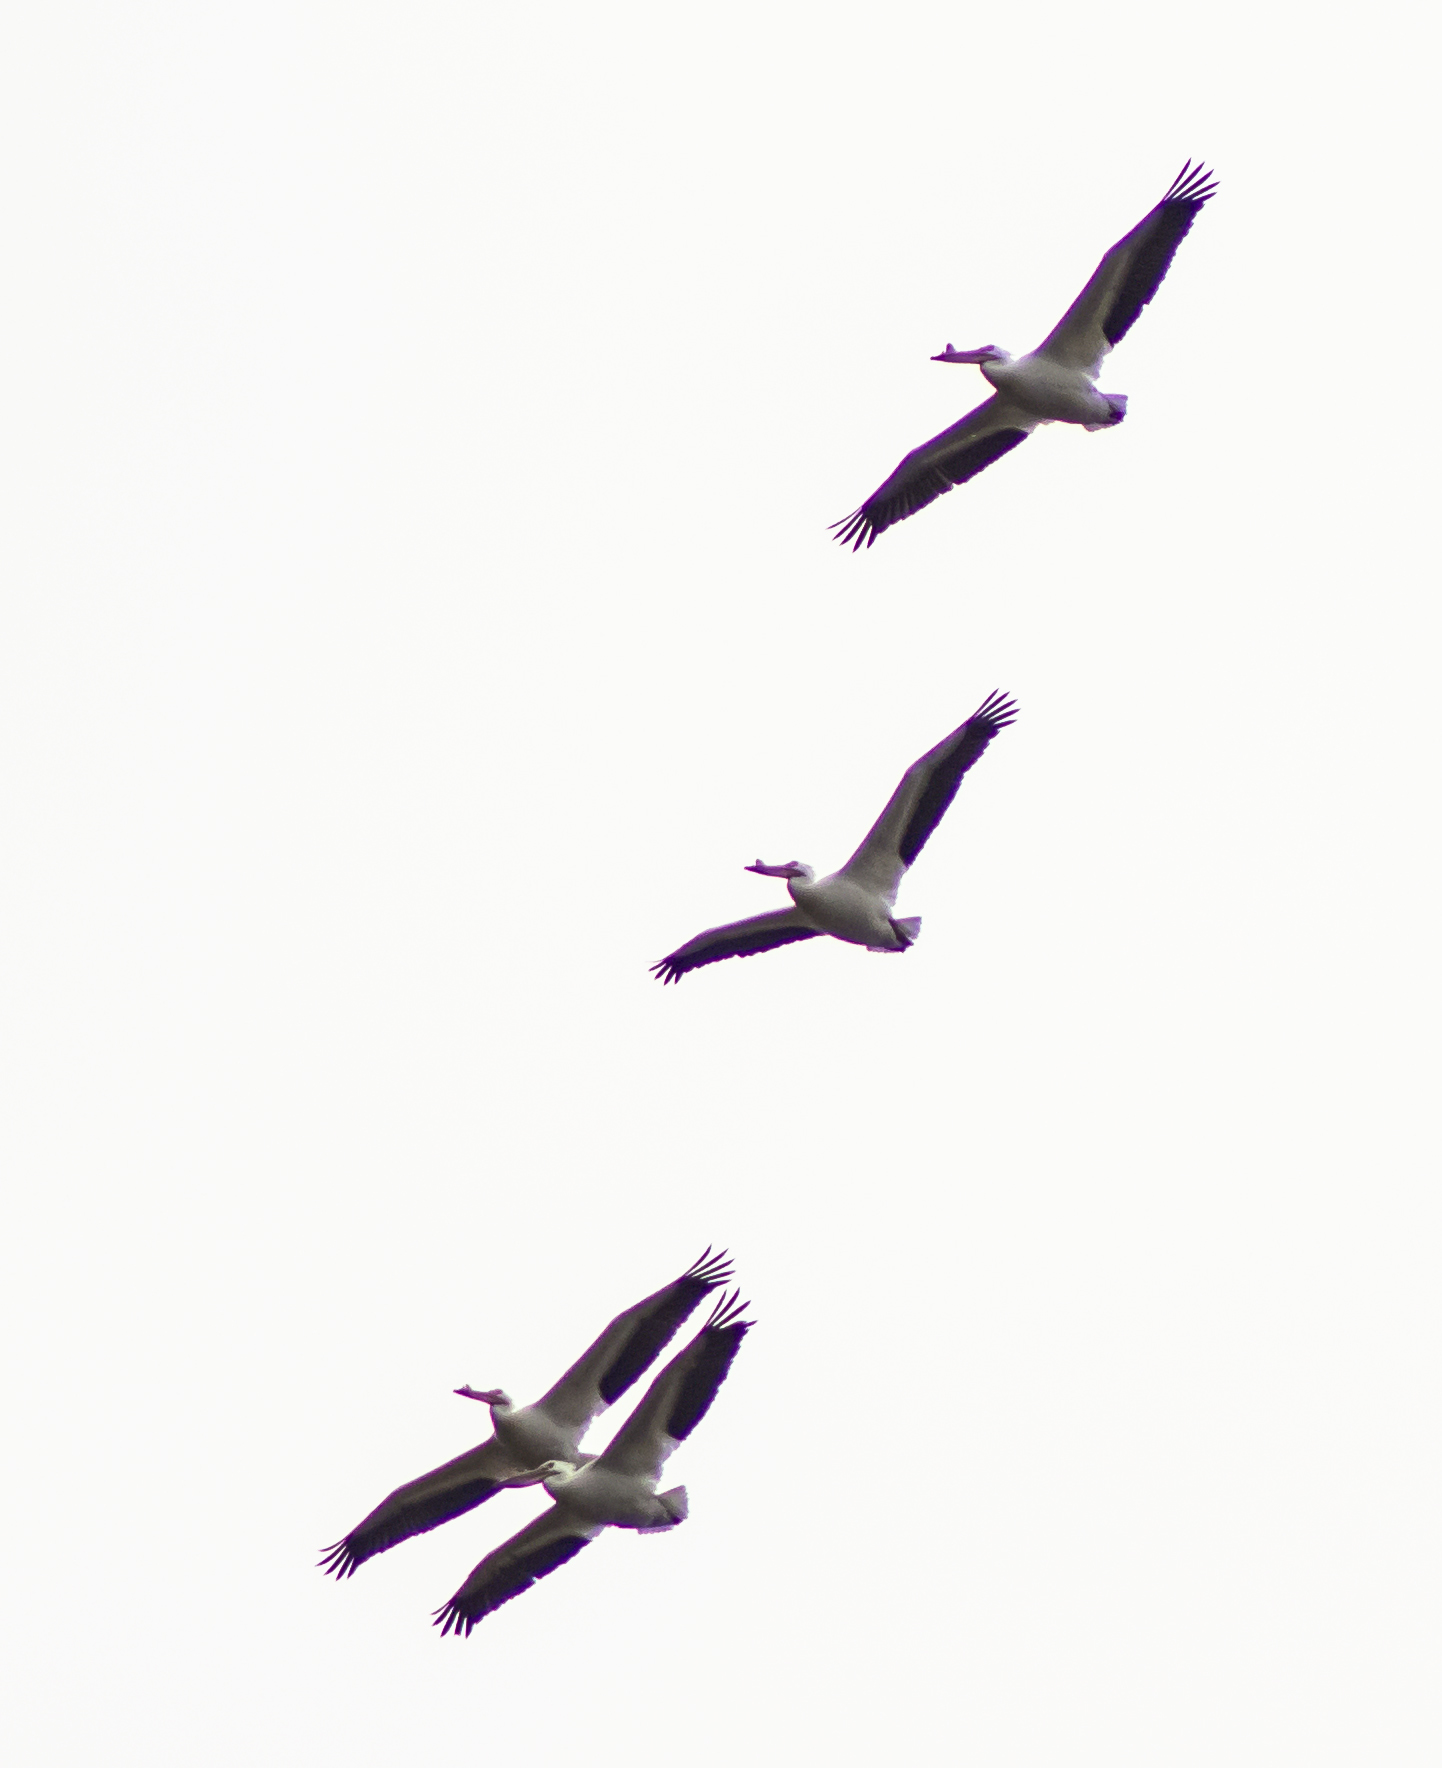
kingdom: Animalia
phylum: Chordata
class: Aves
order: Pelecaniformes
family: Pelecanidae
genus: Pelecanus
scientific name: Pelecanus erythrorhynchos
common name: American white pelican
